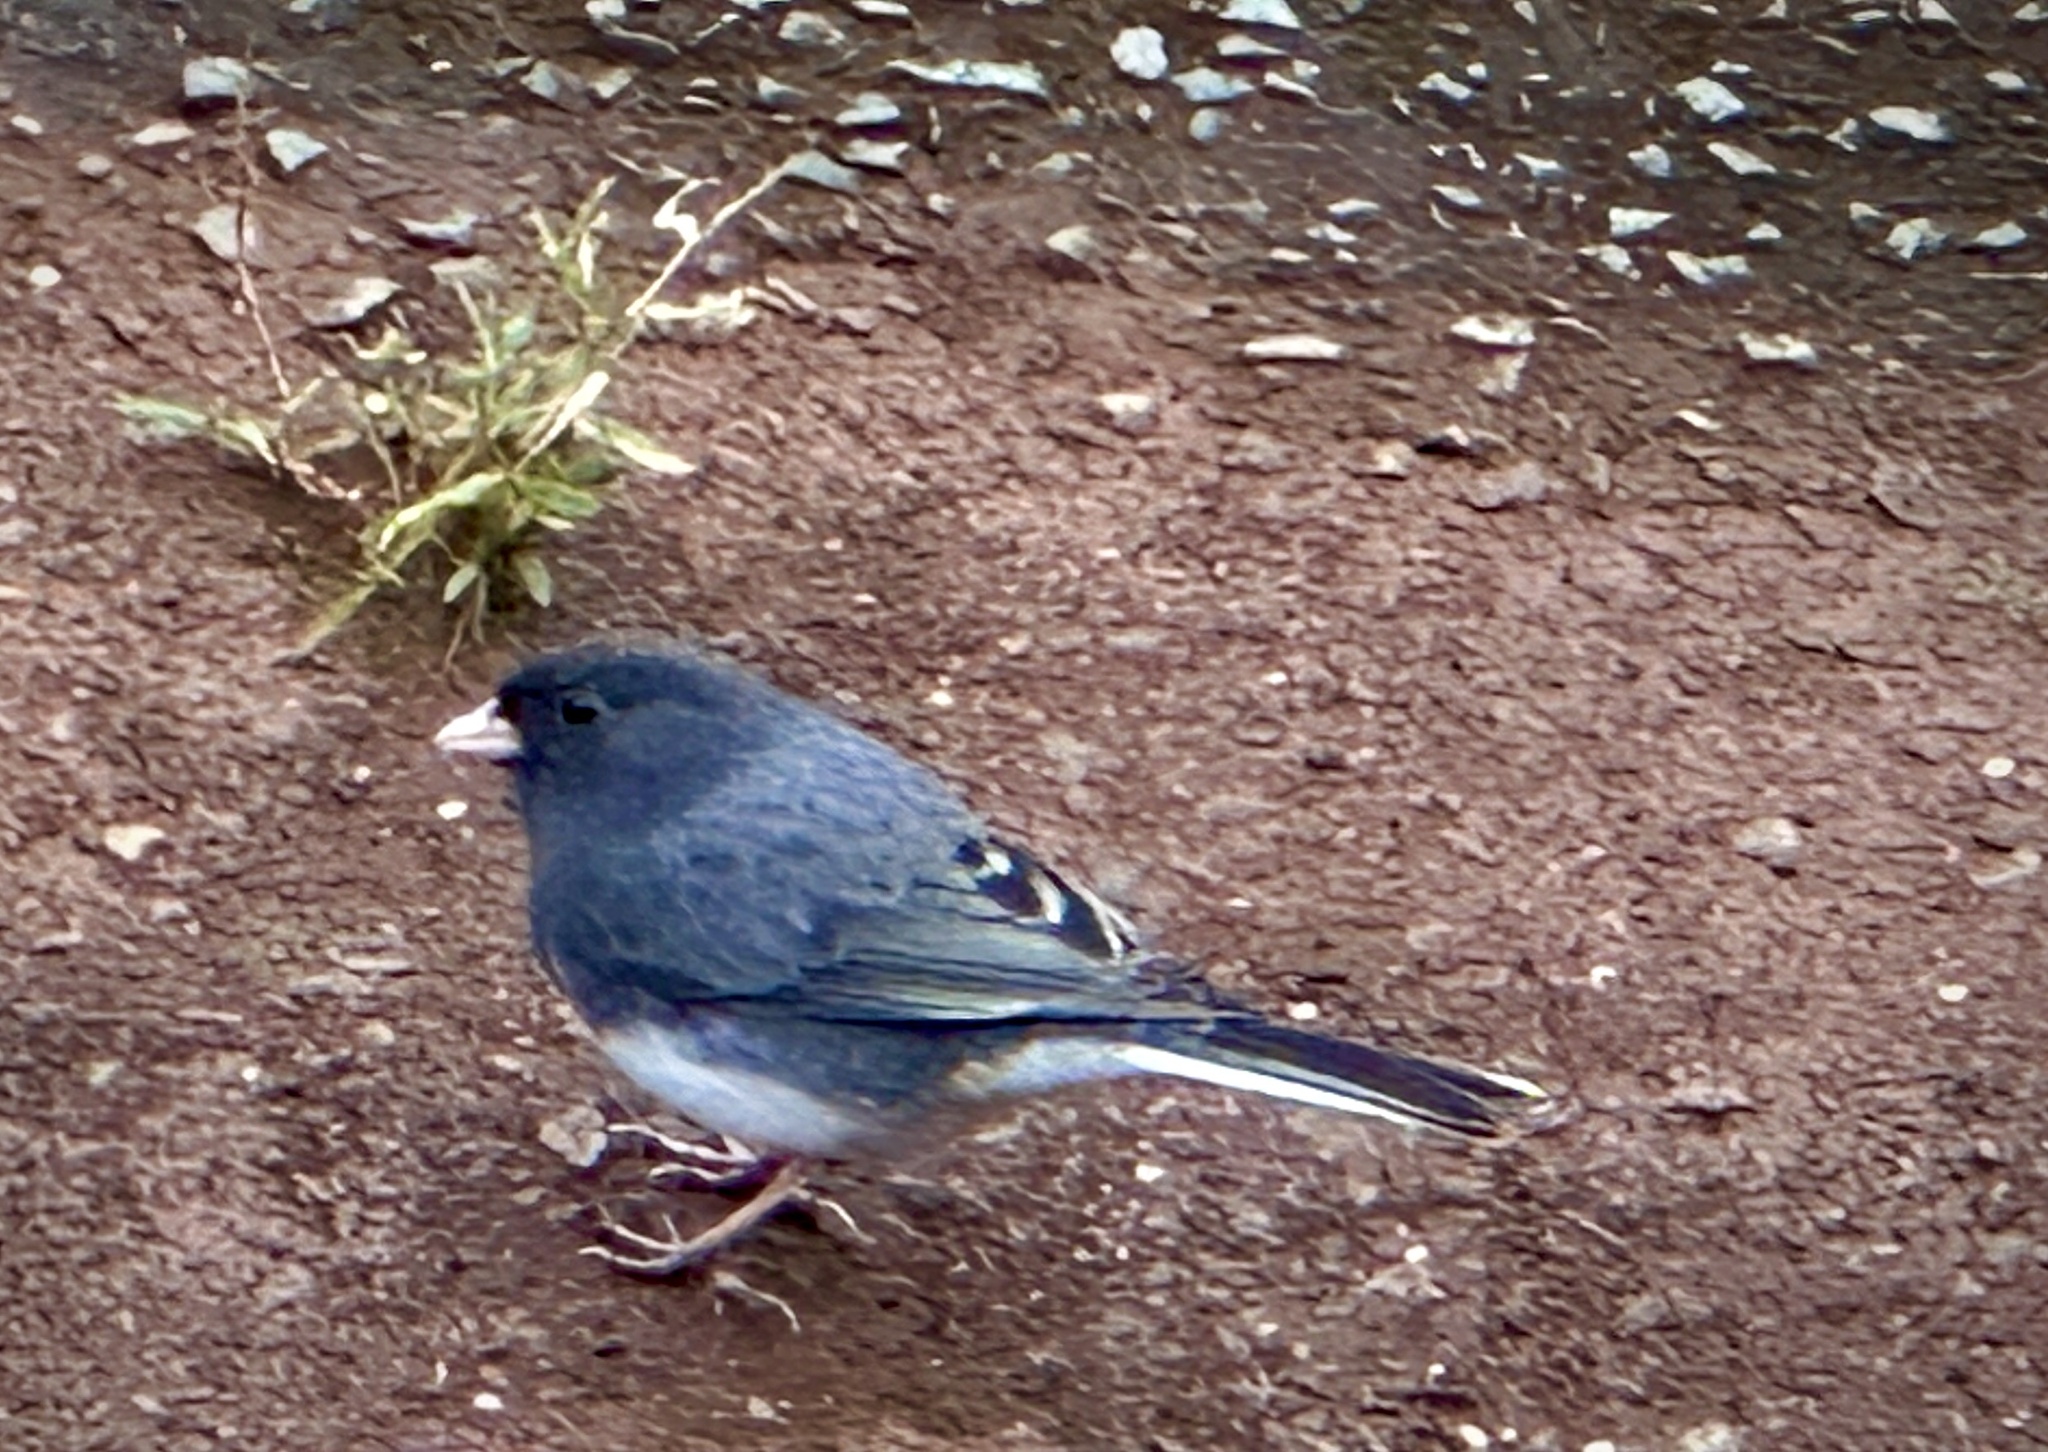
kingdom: Animalia
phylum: Chordata
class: Aves
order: Passeriformes
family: Passerellidae
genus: Junco
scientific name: Junco hyemalis
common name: Dark-eyed junco
